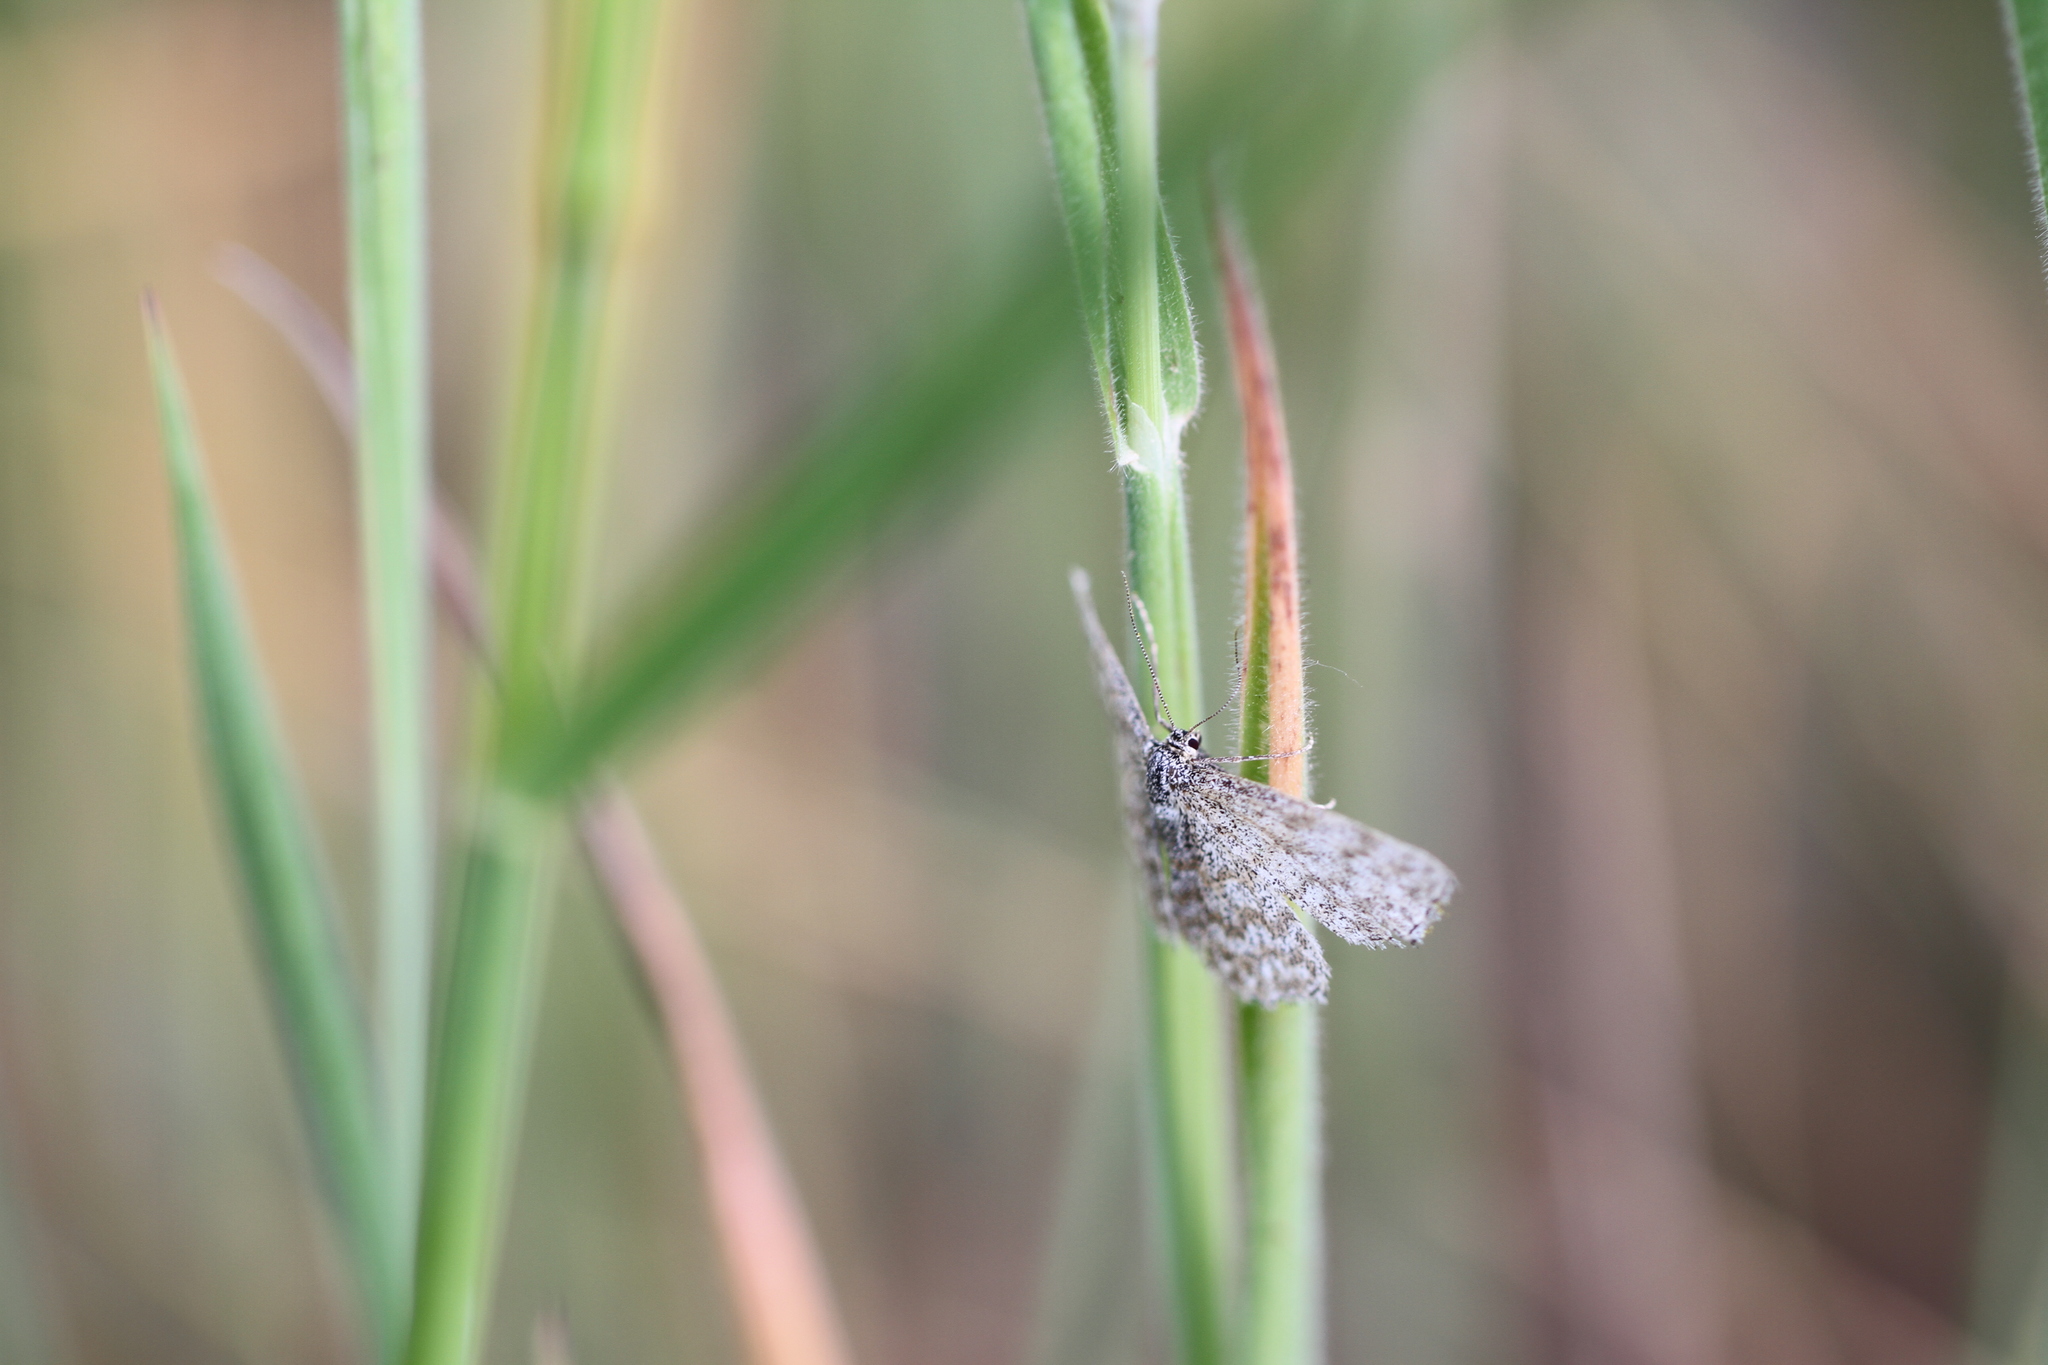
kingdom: Animalia
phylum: Arthropoda
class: Insecta
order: Lepidoptera
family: Geometridae
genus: Scopula
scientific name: Scopula immorata
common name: Lewes wave
